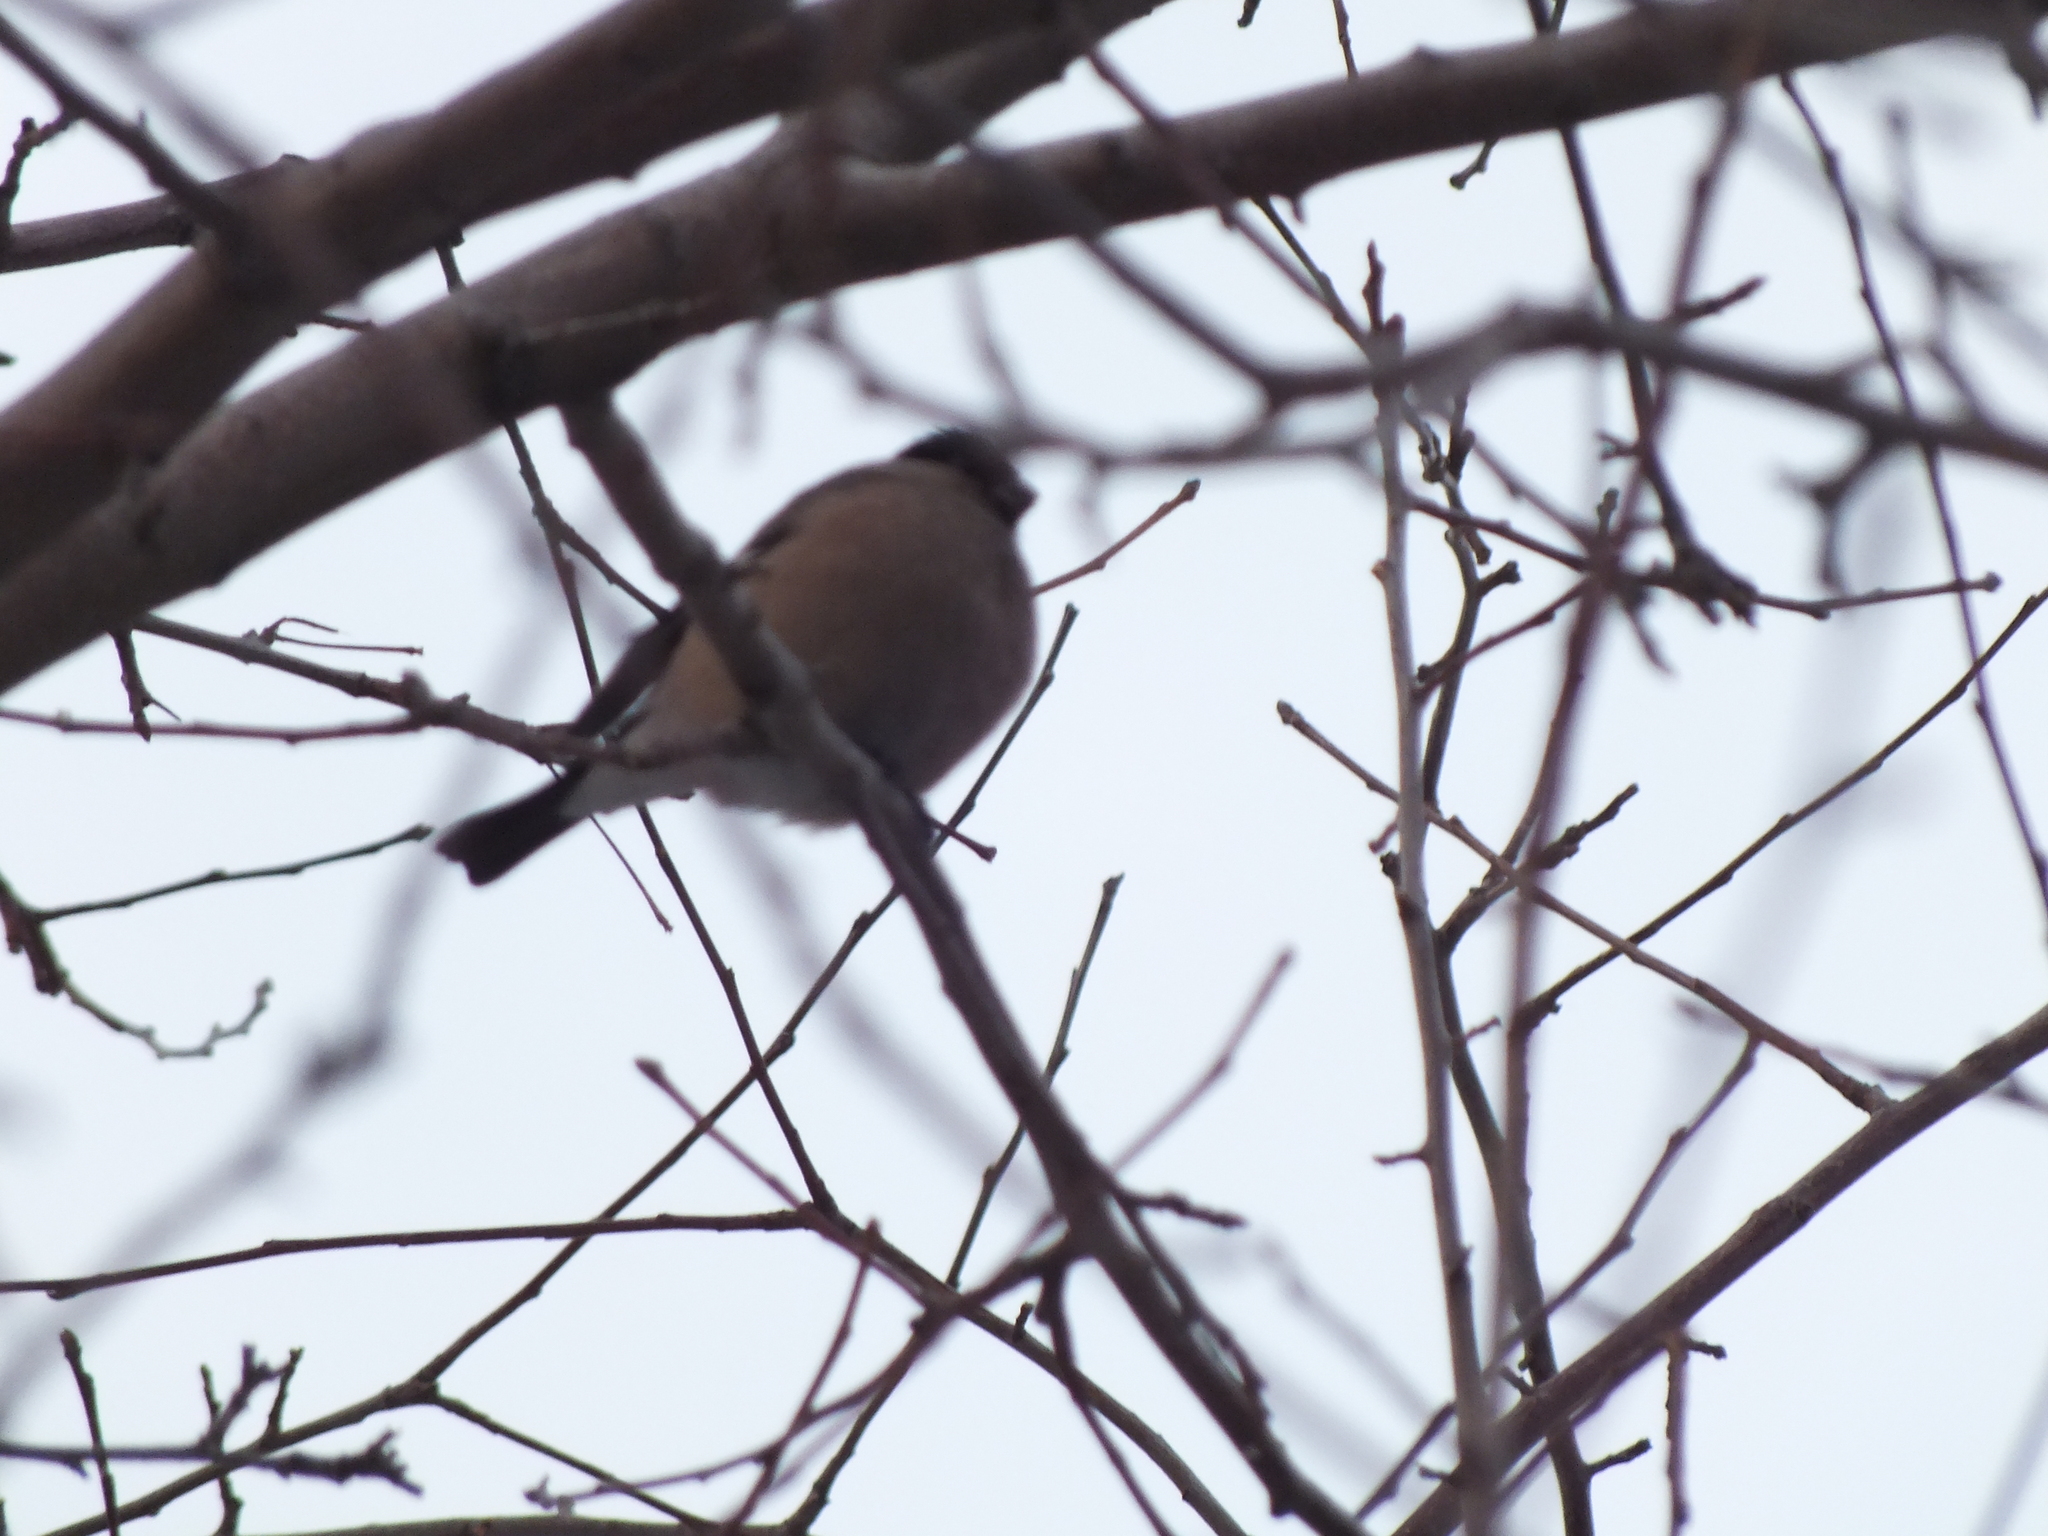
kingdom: Animalia
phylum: Chordata
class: Aves
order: Passeriformes
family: Fringillidae
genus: Pyrrhula
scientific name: Pyrrhula pyrrhula
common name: Eurasian bullfinch
